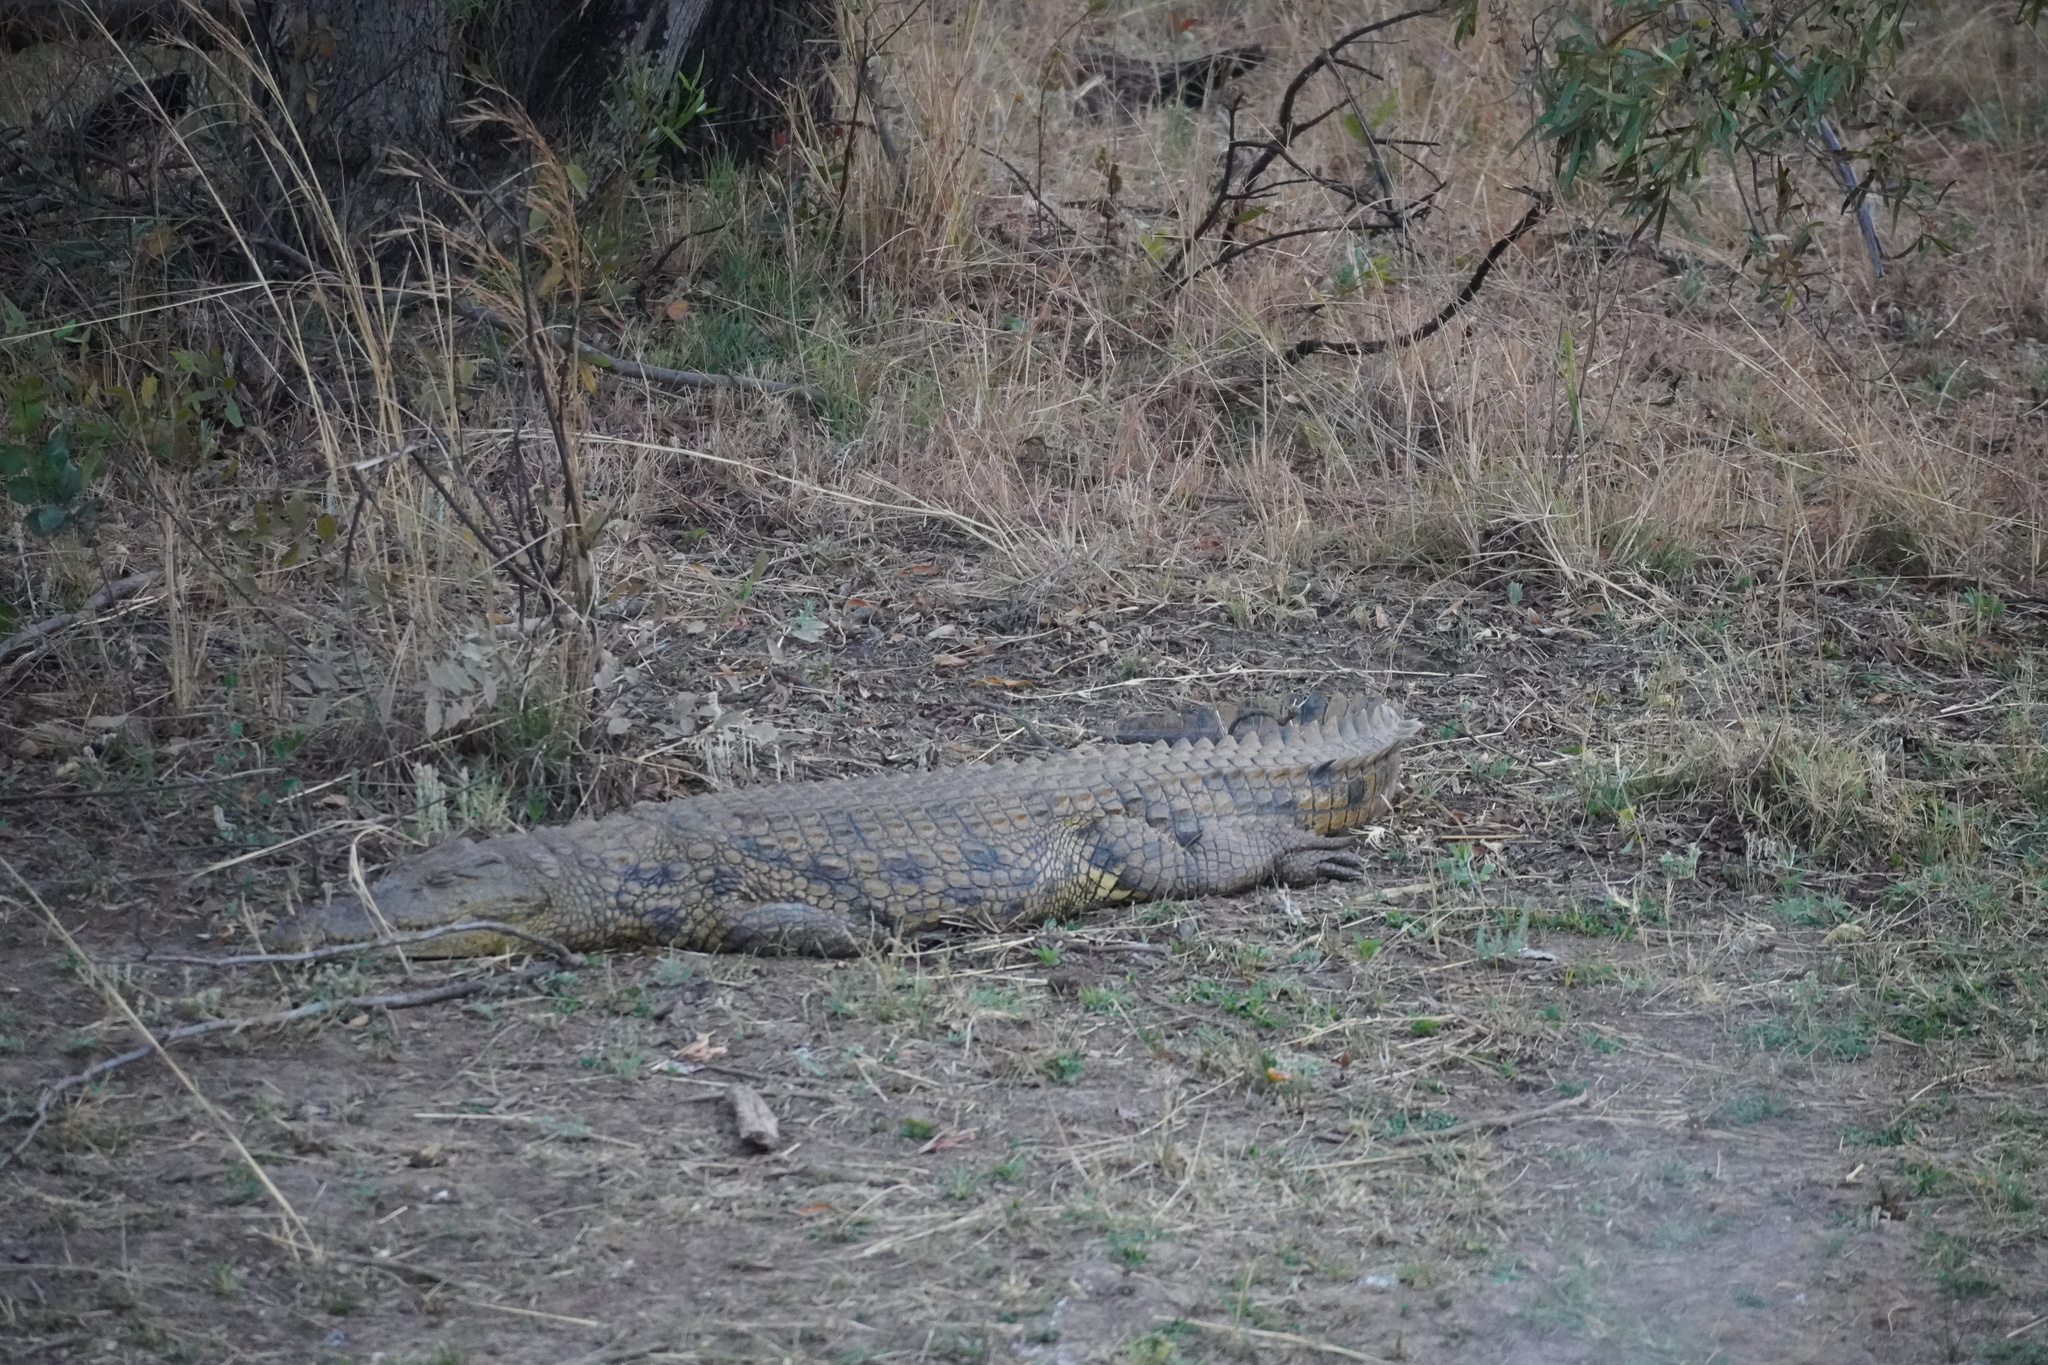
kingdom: Animalia
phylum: Chordata
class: Crocodylia
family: Crocodylidae
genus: Crocodylus
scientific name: Crocodylus niloticus
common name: Nile crocodile
